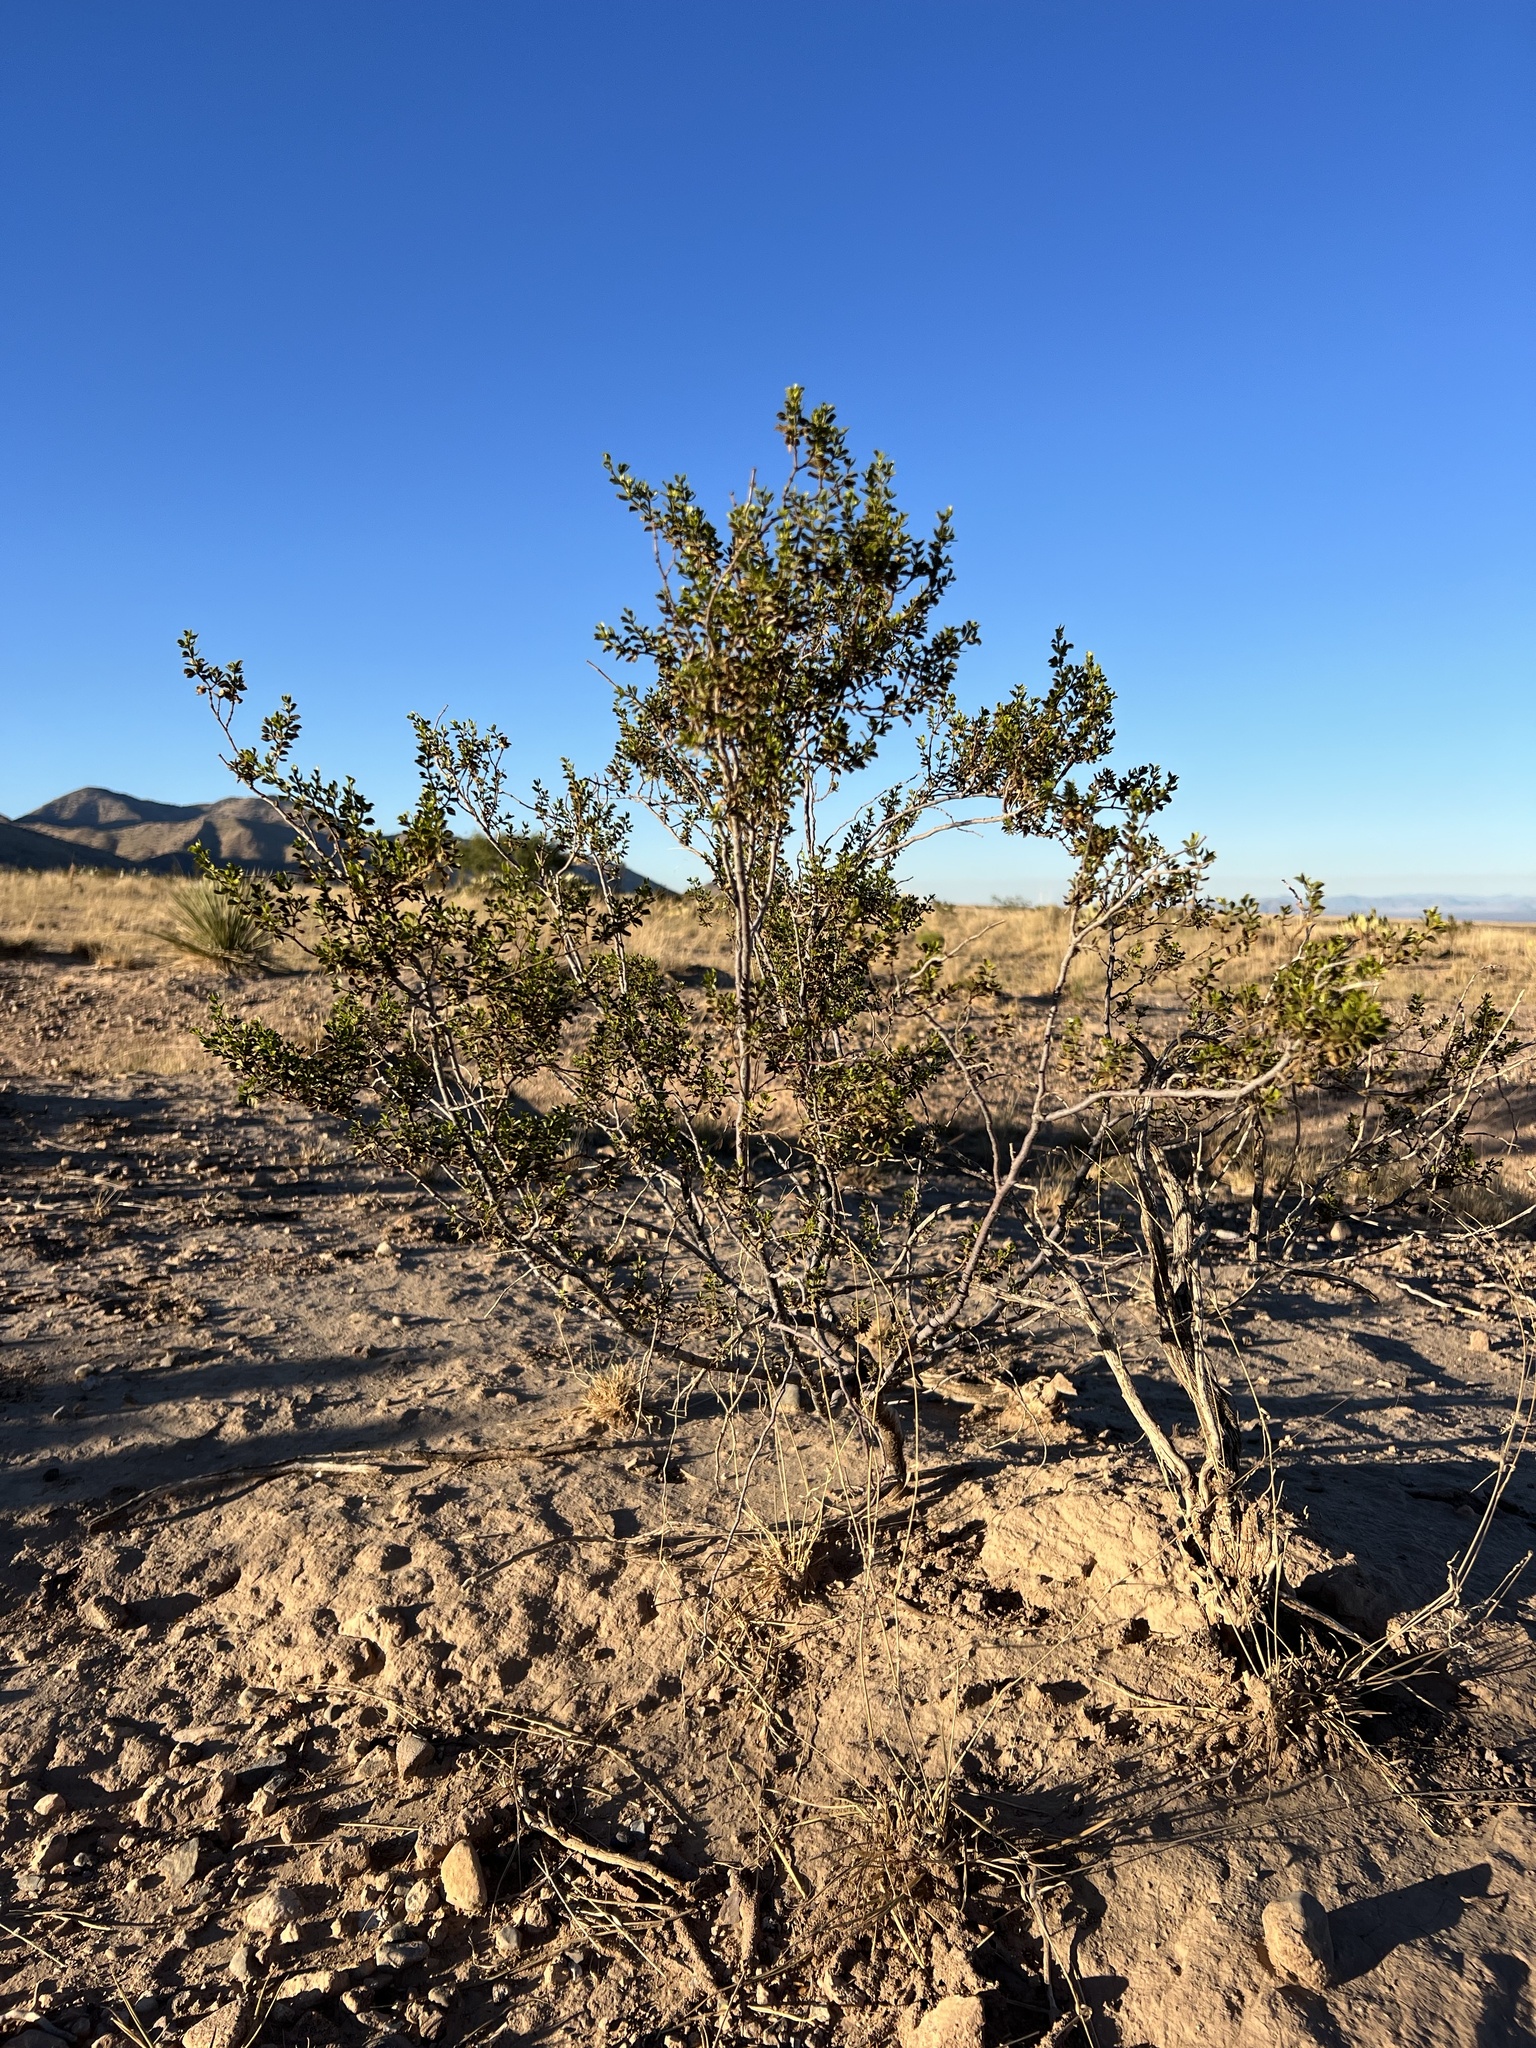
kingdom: Plantae
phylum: Tracheophyta
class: Magnoliopsida
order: Zygophyllales
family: Zygophyllaceae
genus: Larrea
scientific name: Larrea tridentata
